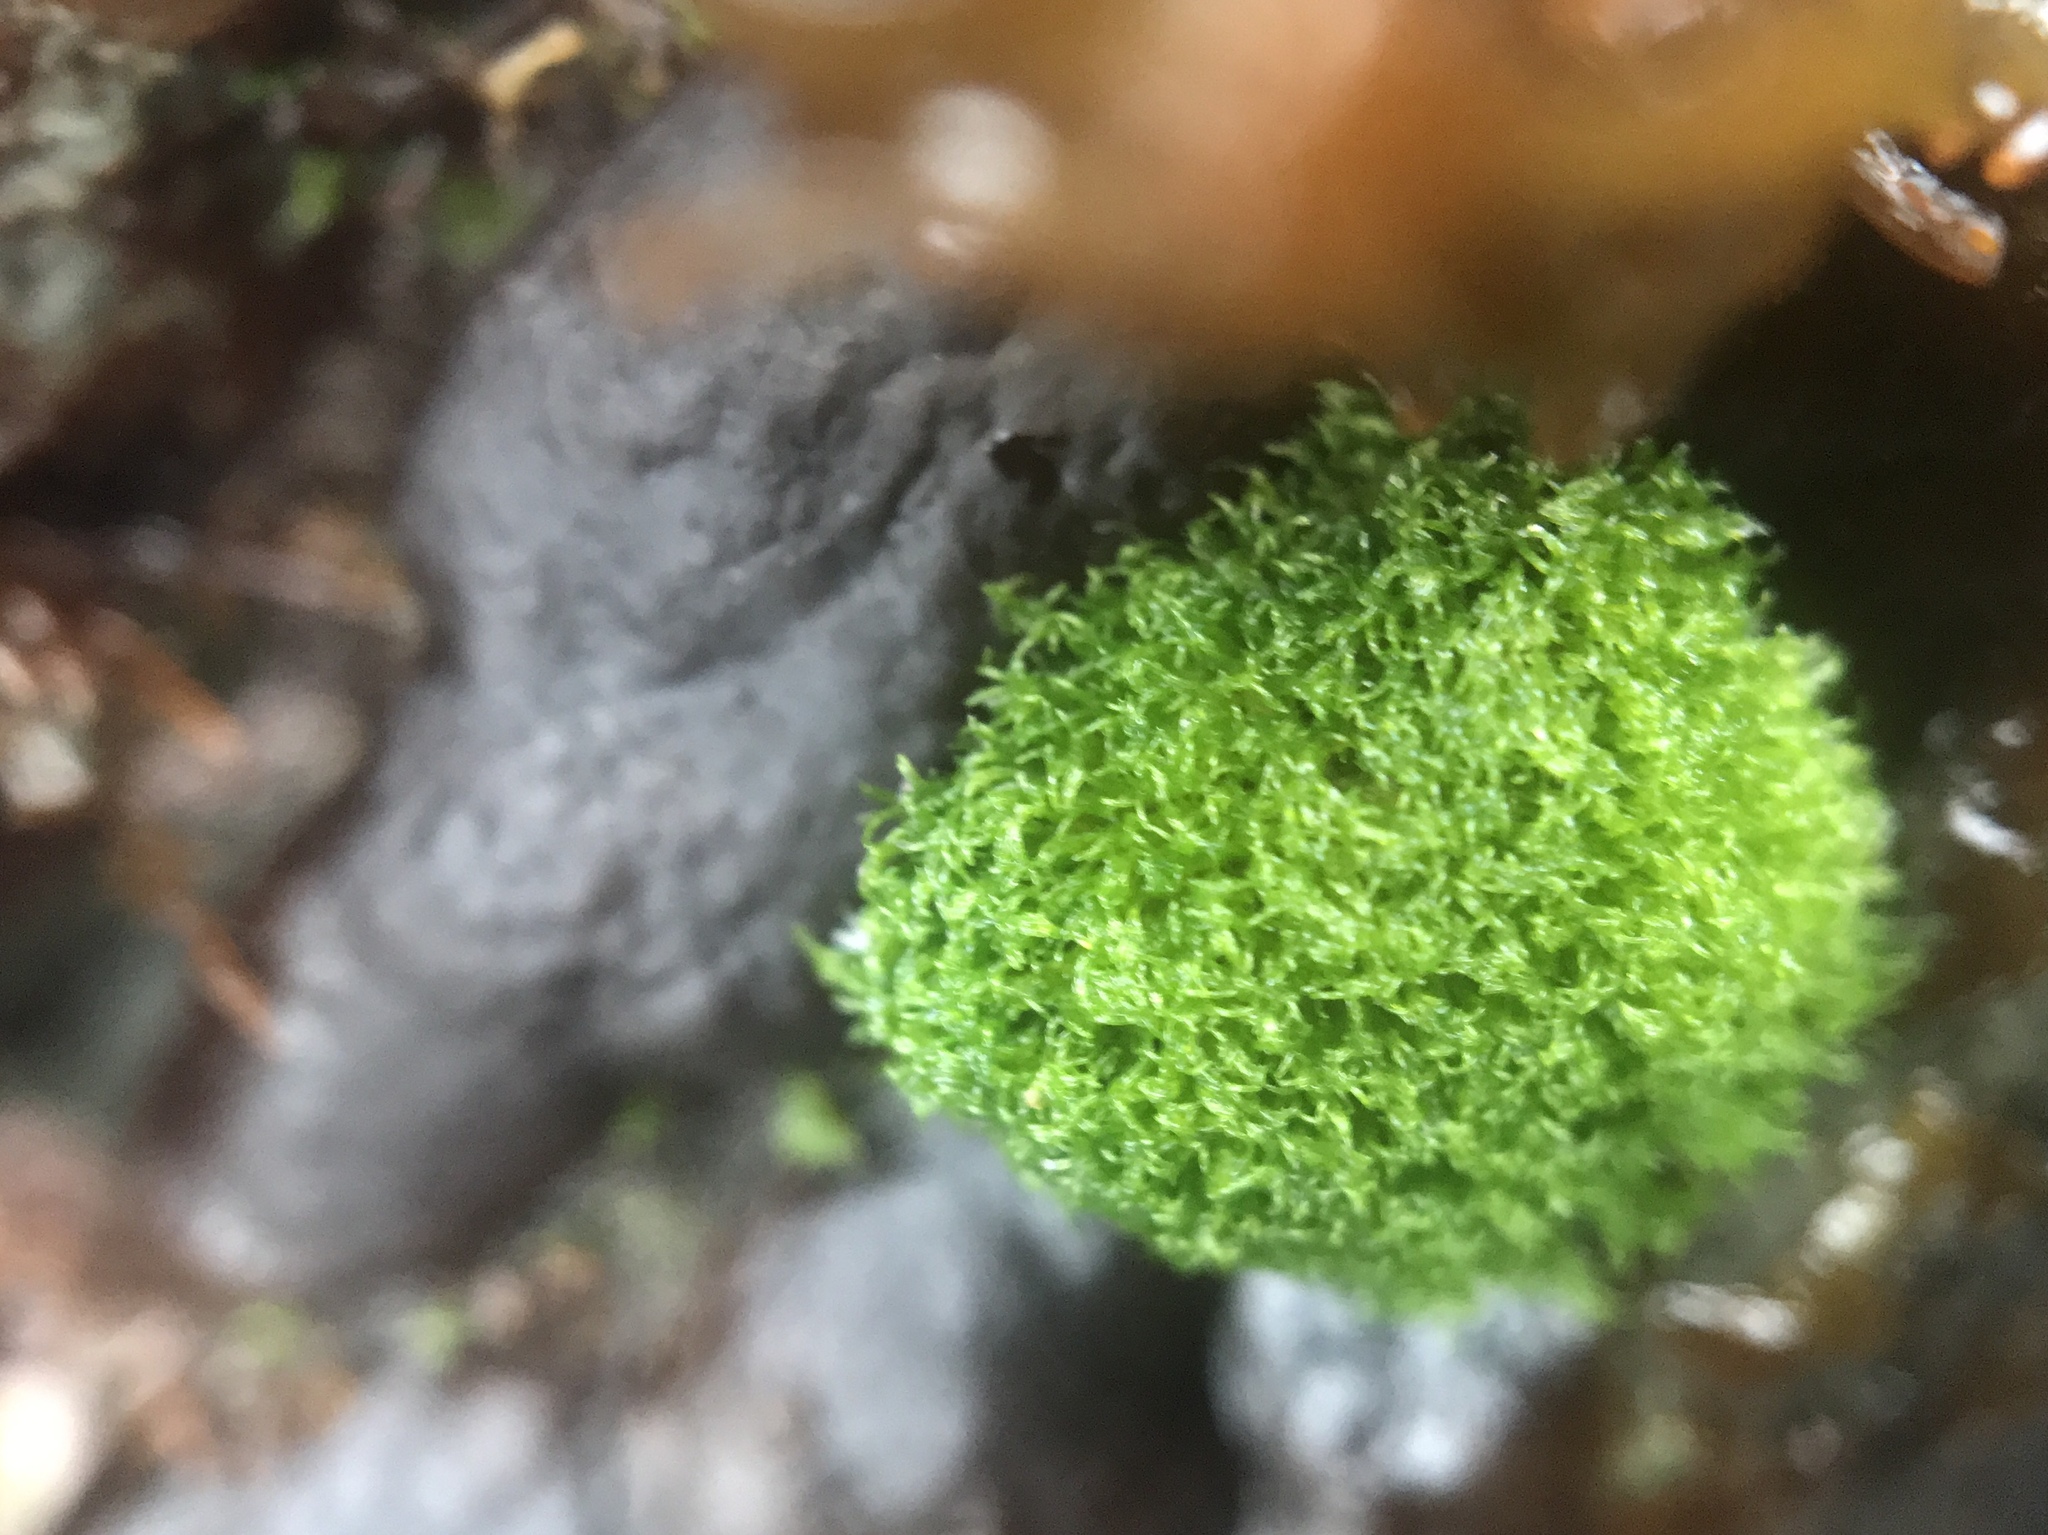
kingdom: Plantae
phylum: Chlorophyta
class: Ulvophyceae
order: Cladophorales
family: Cladophoraceae
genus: Cladophora
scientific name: Cladophora columbiana
